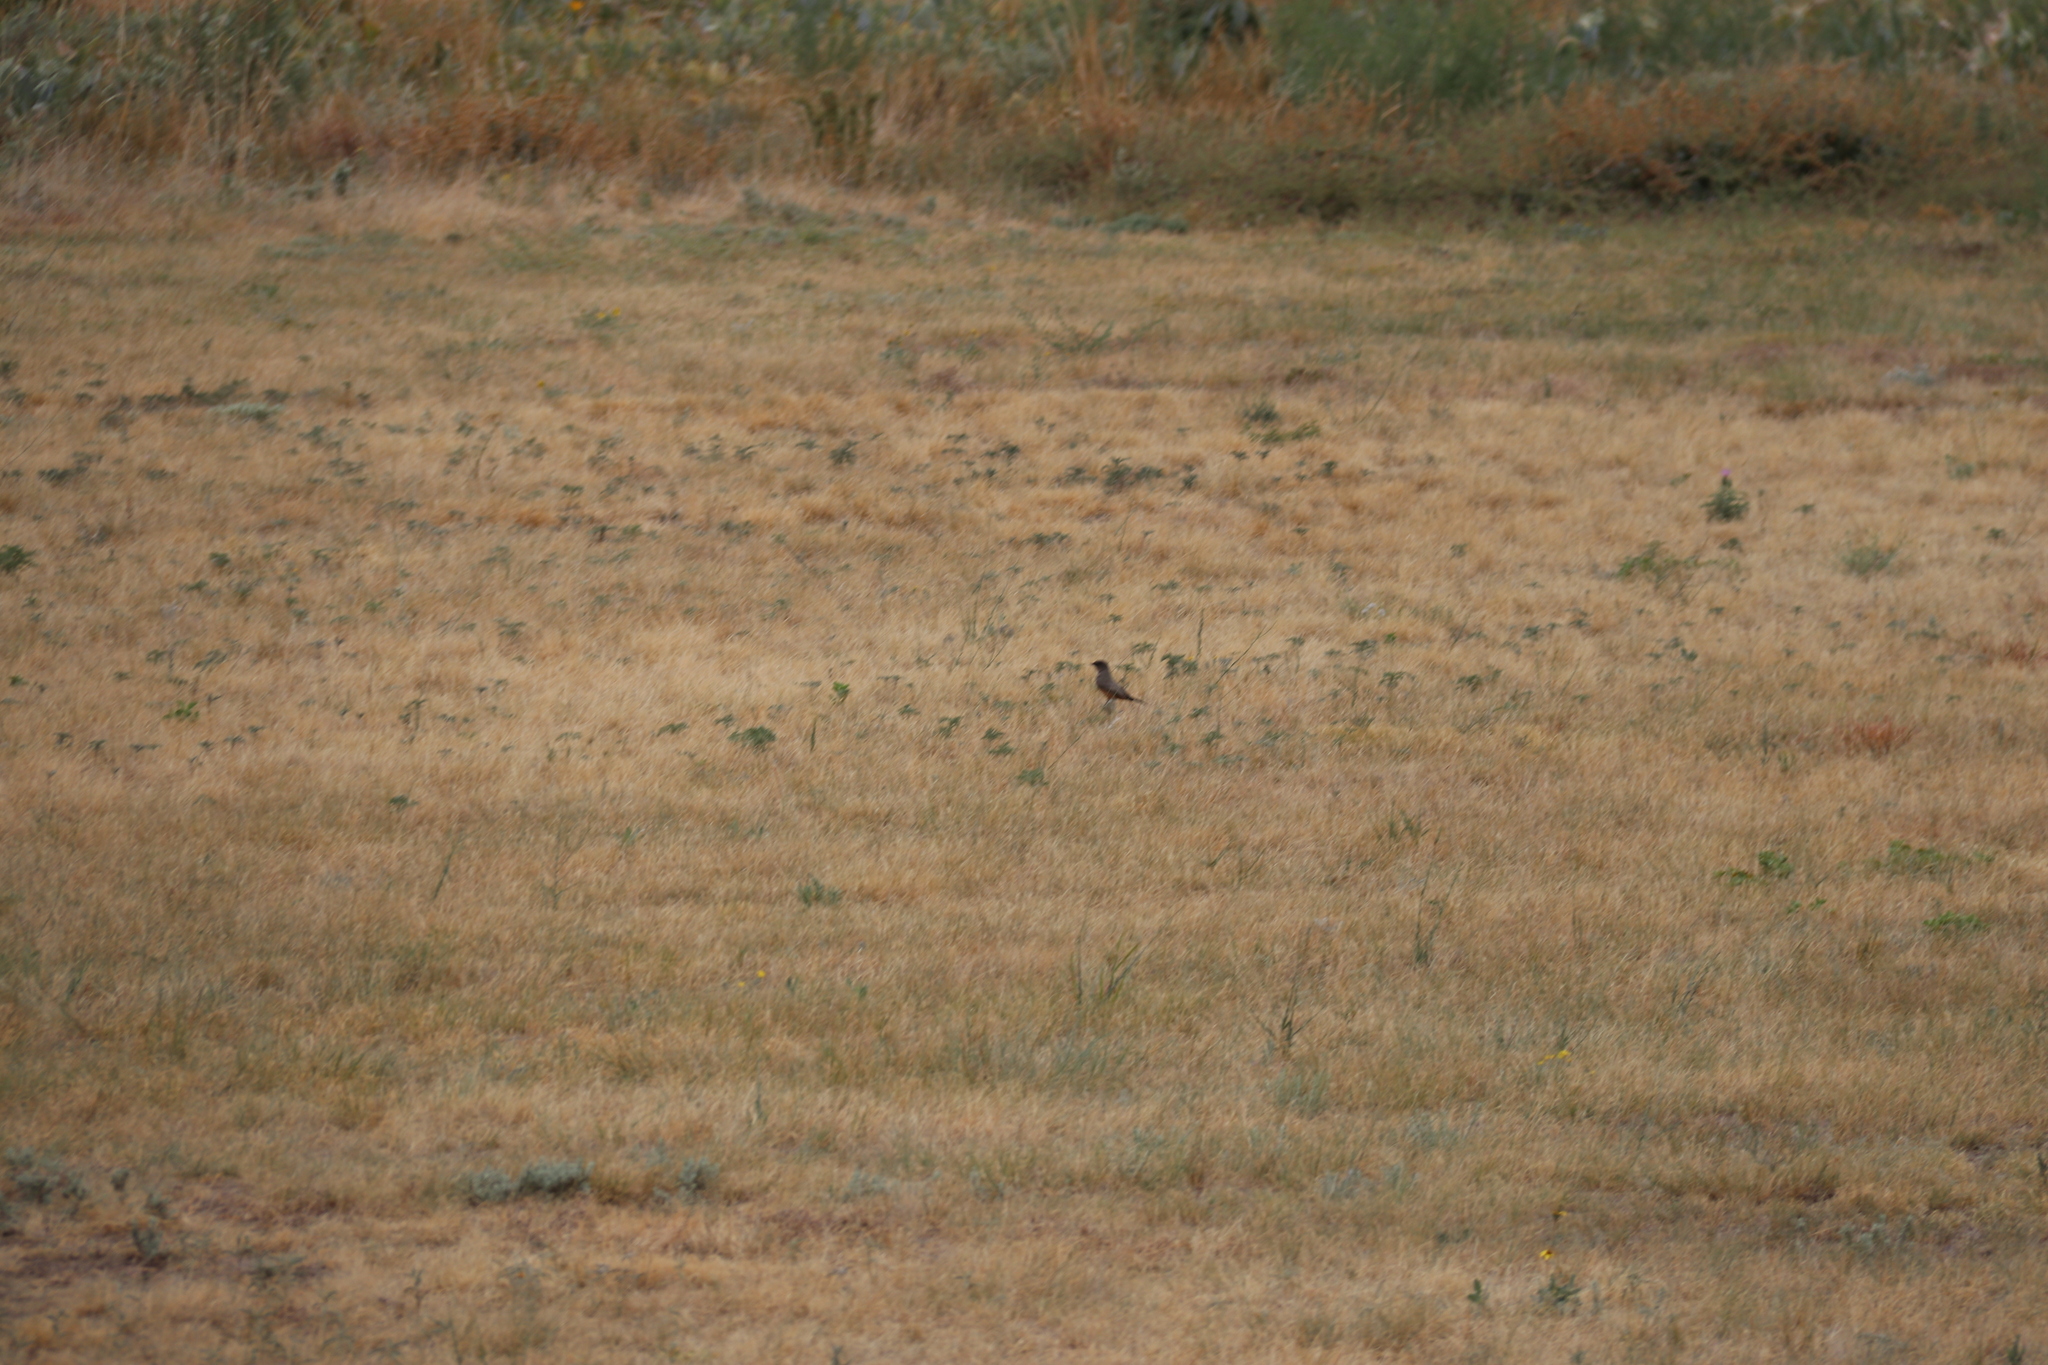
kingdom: Animalia
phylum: Chordata
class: Aves
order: Passeriformes
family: Tyrannidae
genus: Sayornis
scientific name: Sayornis saya
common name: Say's phoebe
